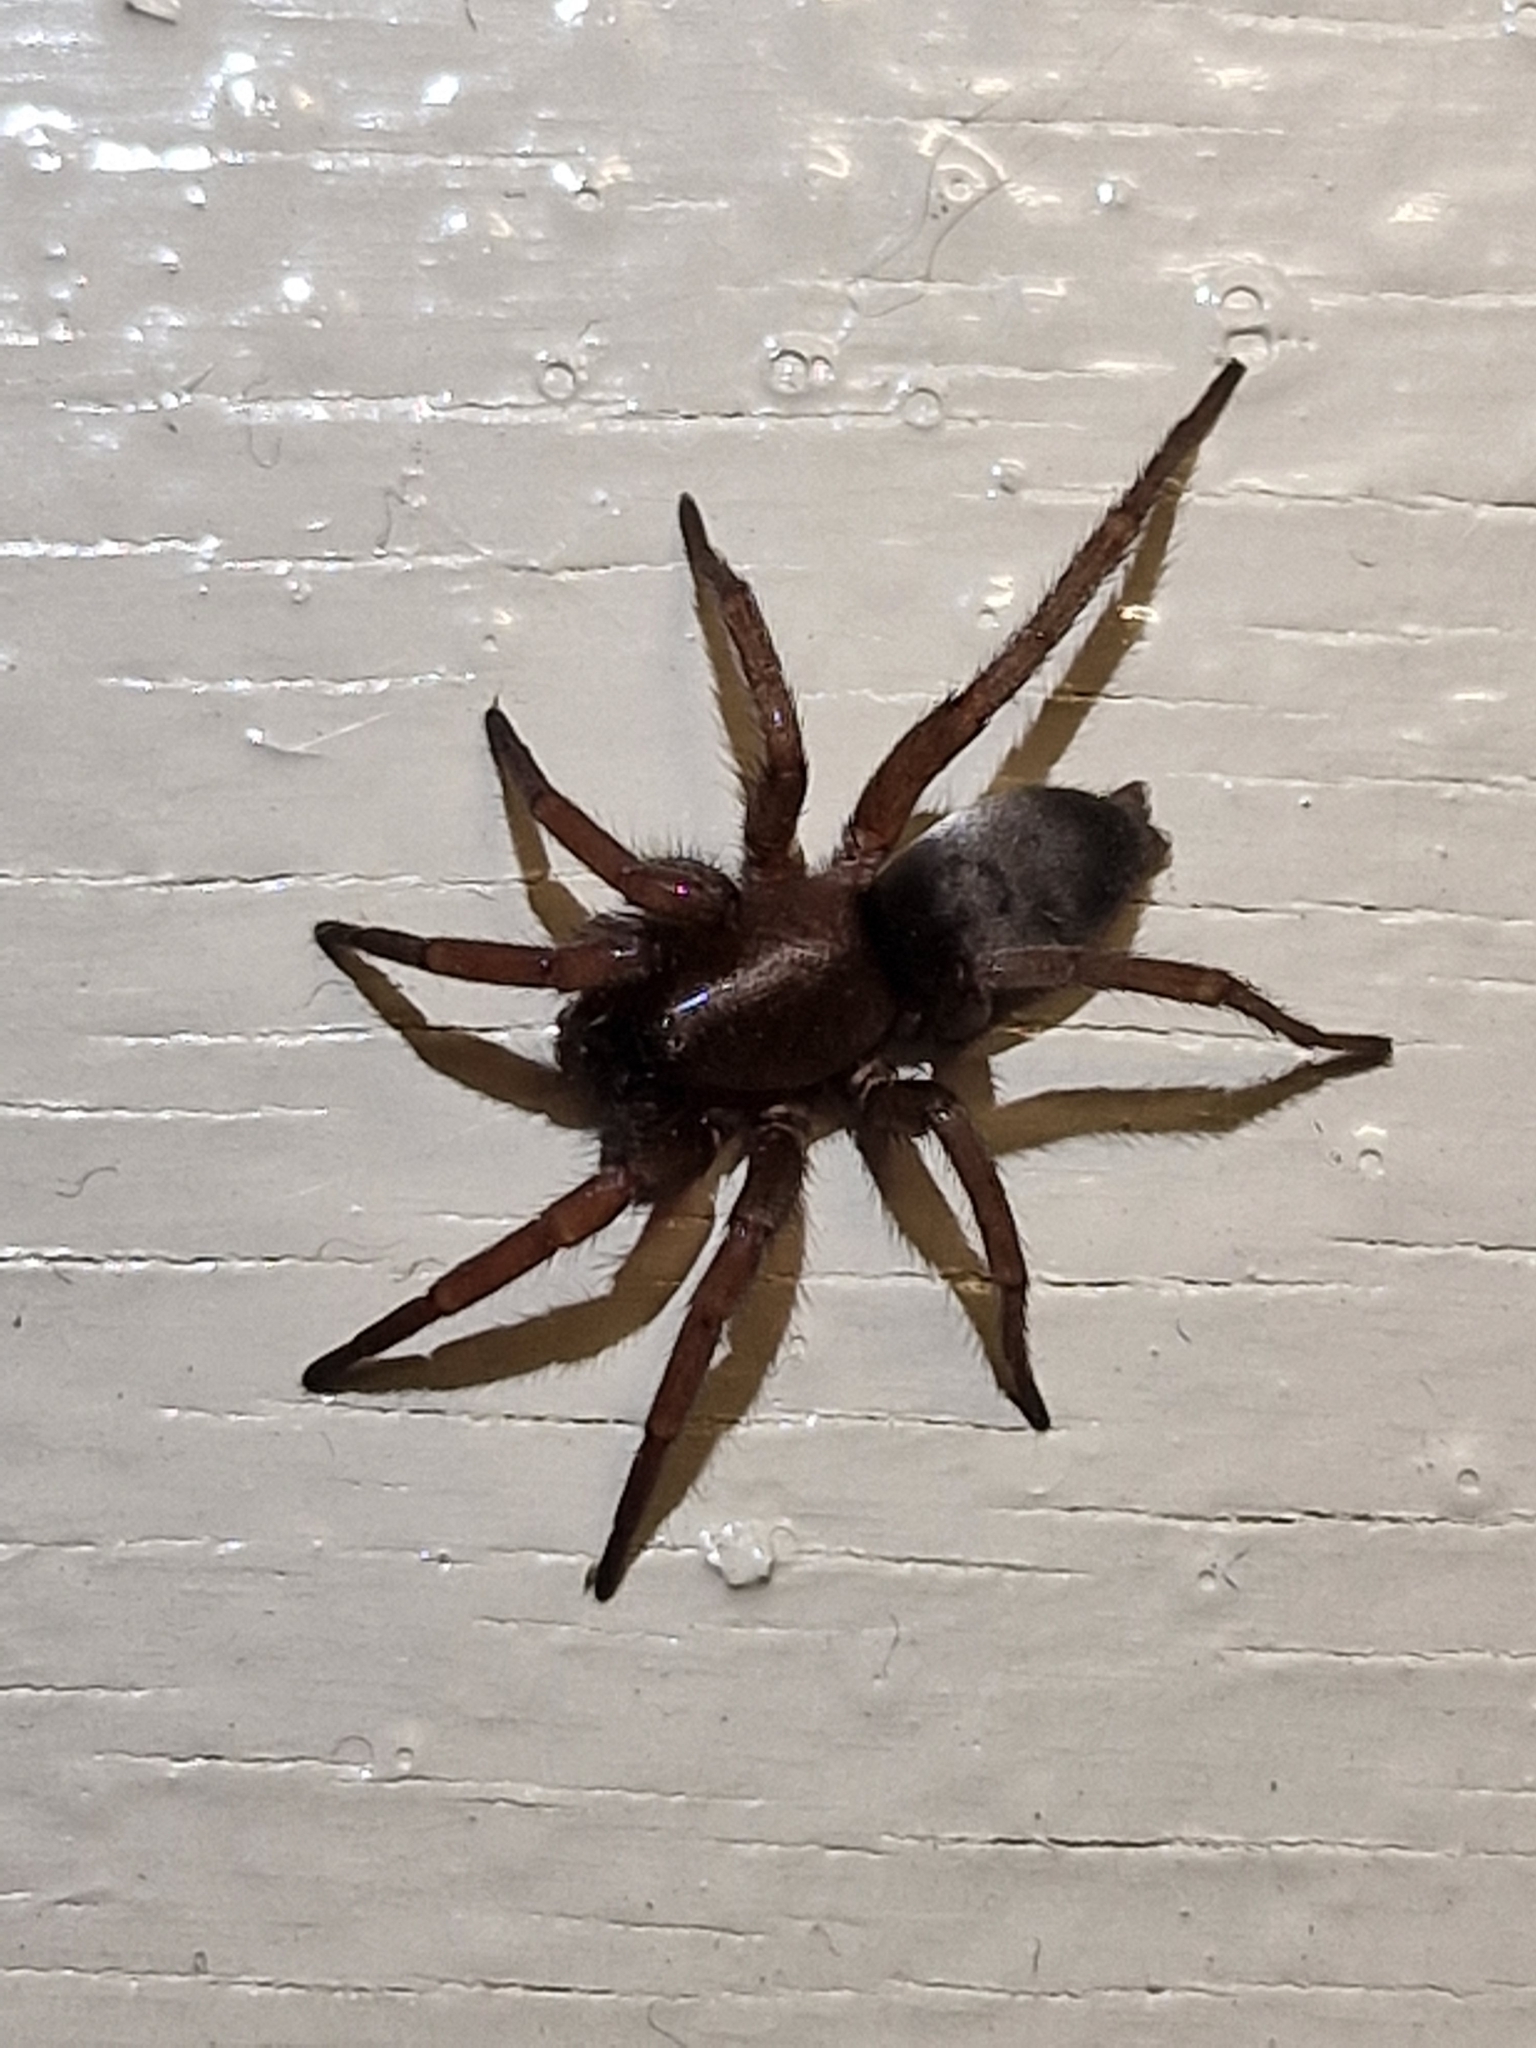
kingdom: Animalia
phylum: Arthropoda
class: Arachnida
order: Araneae
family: Gnaphosidae
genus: Scotophaeus
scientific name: Scotophaeus blackwalli
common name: Mouse spider
